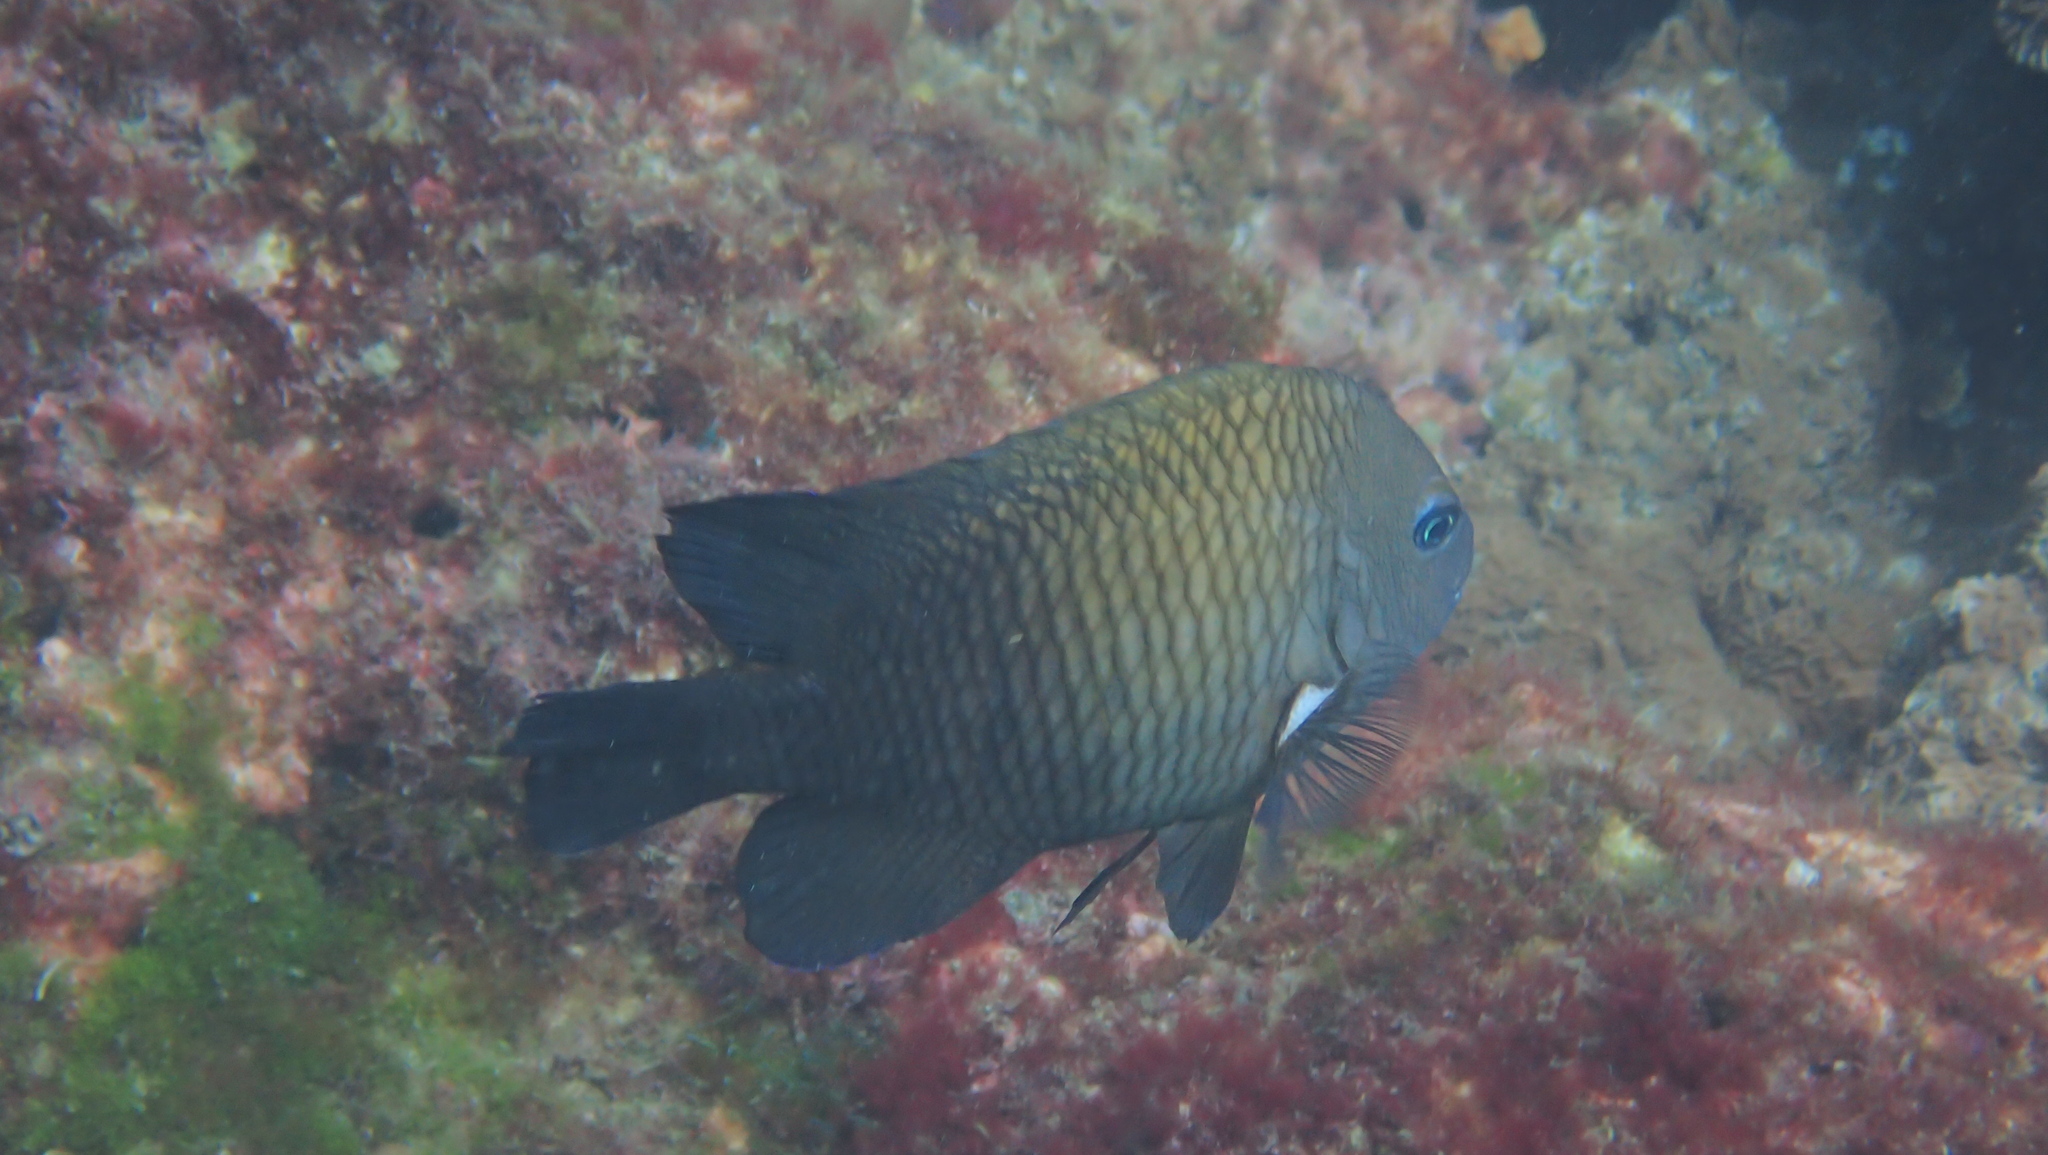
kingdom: Animalia
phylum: Chordata
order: Perciformes
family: Pomacentridae
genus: Stegastes
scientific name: Stegastes acapulcoensis
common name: Acapulco damselfish
